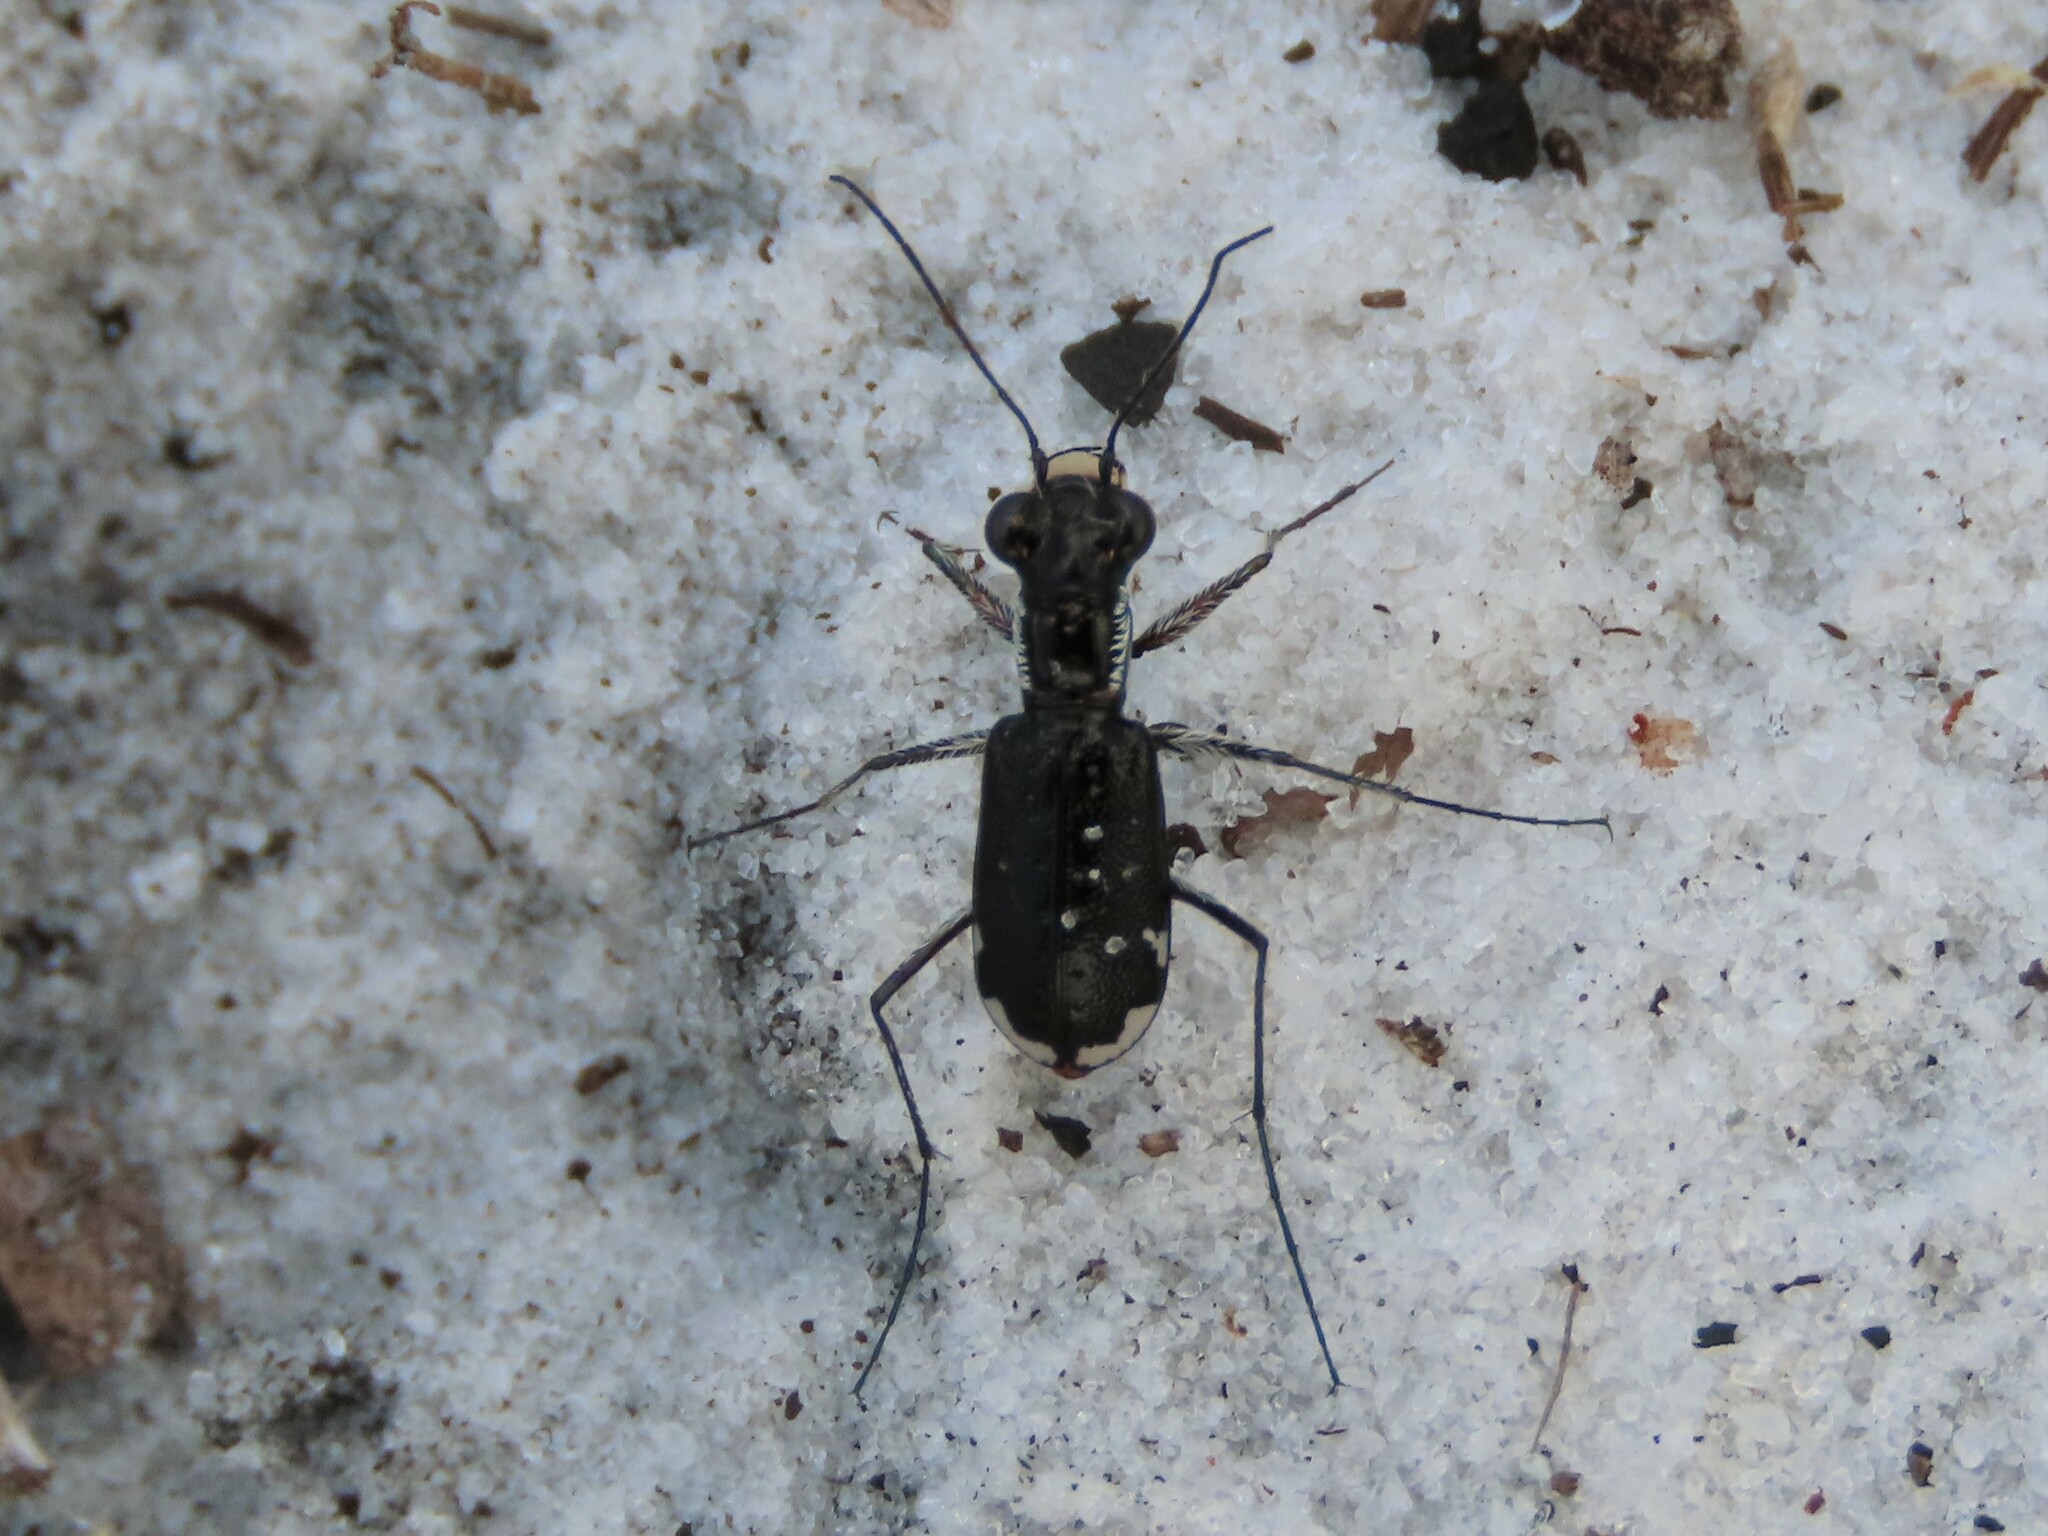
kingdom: Animalia
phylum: Arthropoda
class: Insecta
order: Coleoptera
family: Carabidae
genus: Cicindela
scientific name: Cicindela scabrosa
